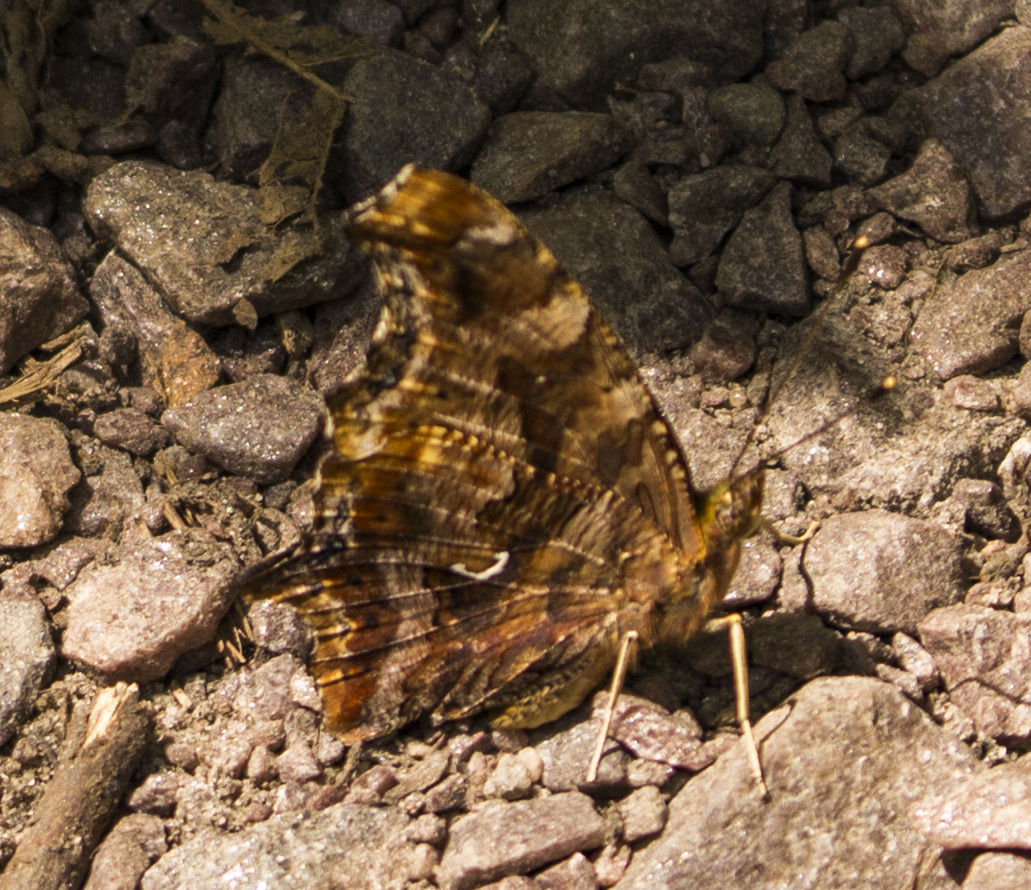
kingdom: Animalia
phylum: Arthropoda
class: Insecta
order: Lepidoptera
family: Nymphalidae
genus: Polygonia
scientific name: Polygonia comma
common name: Eastern comma
